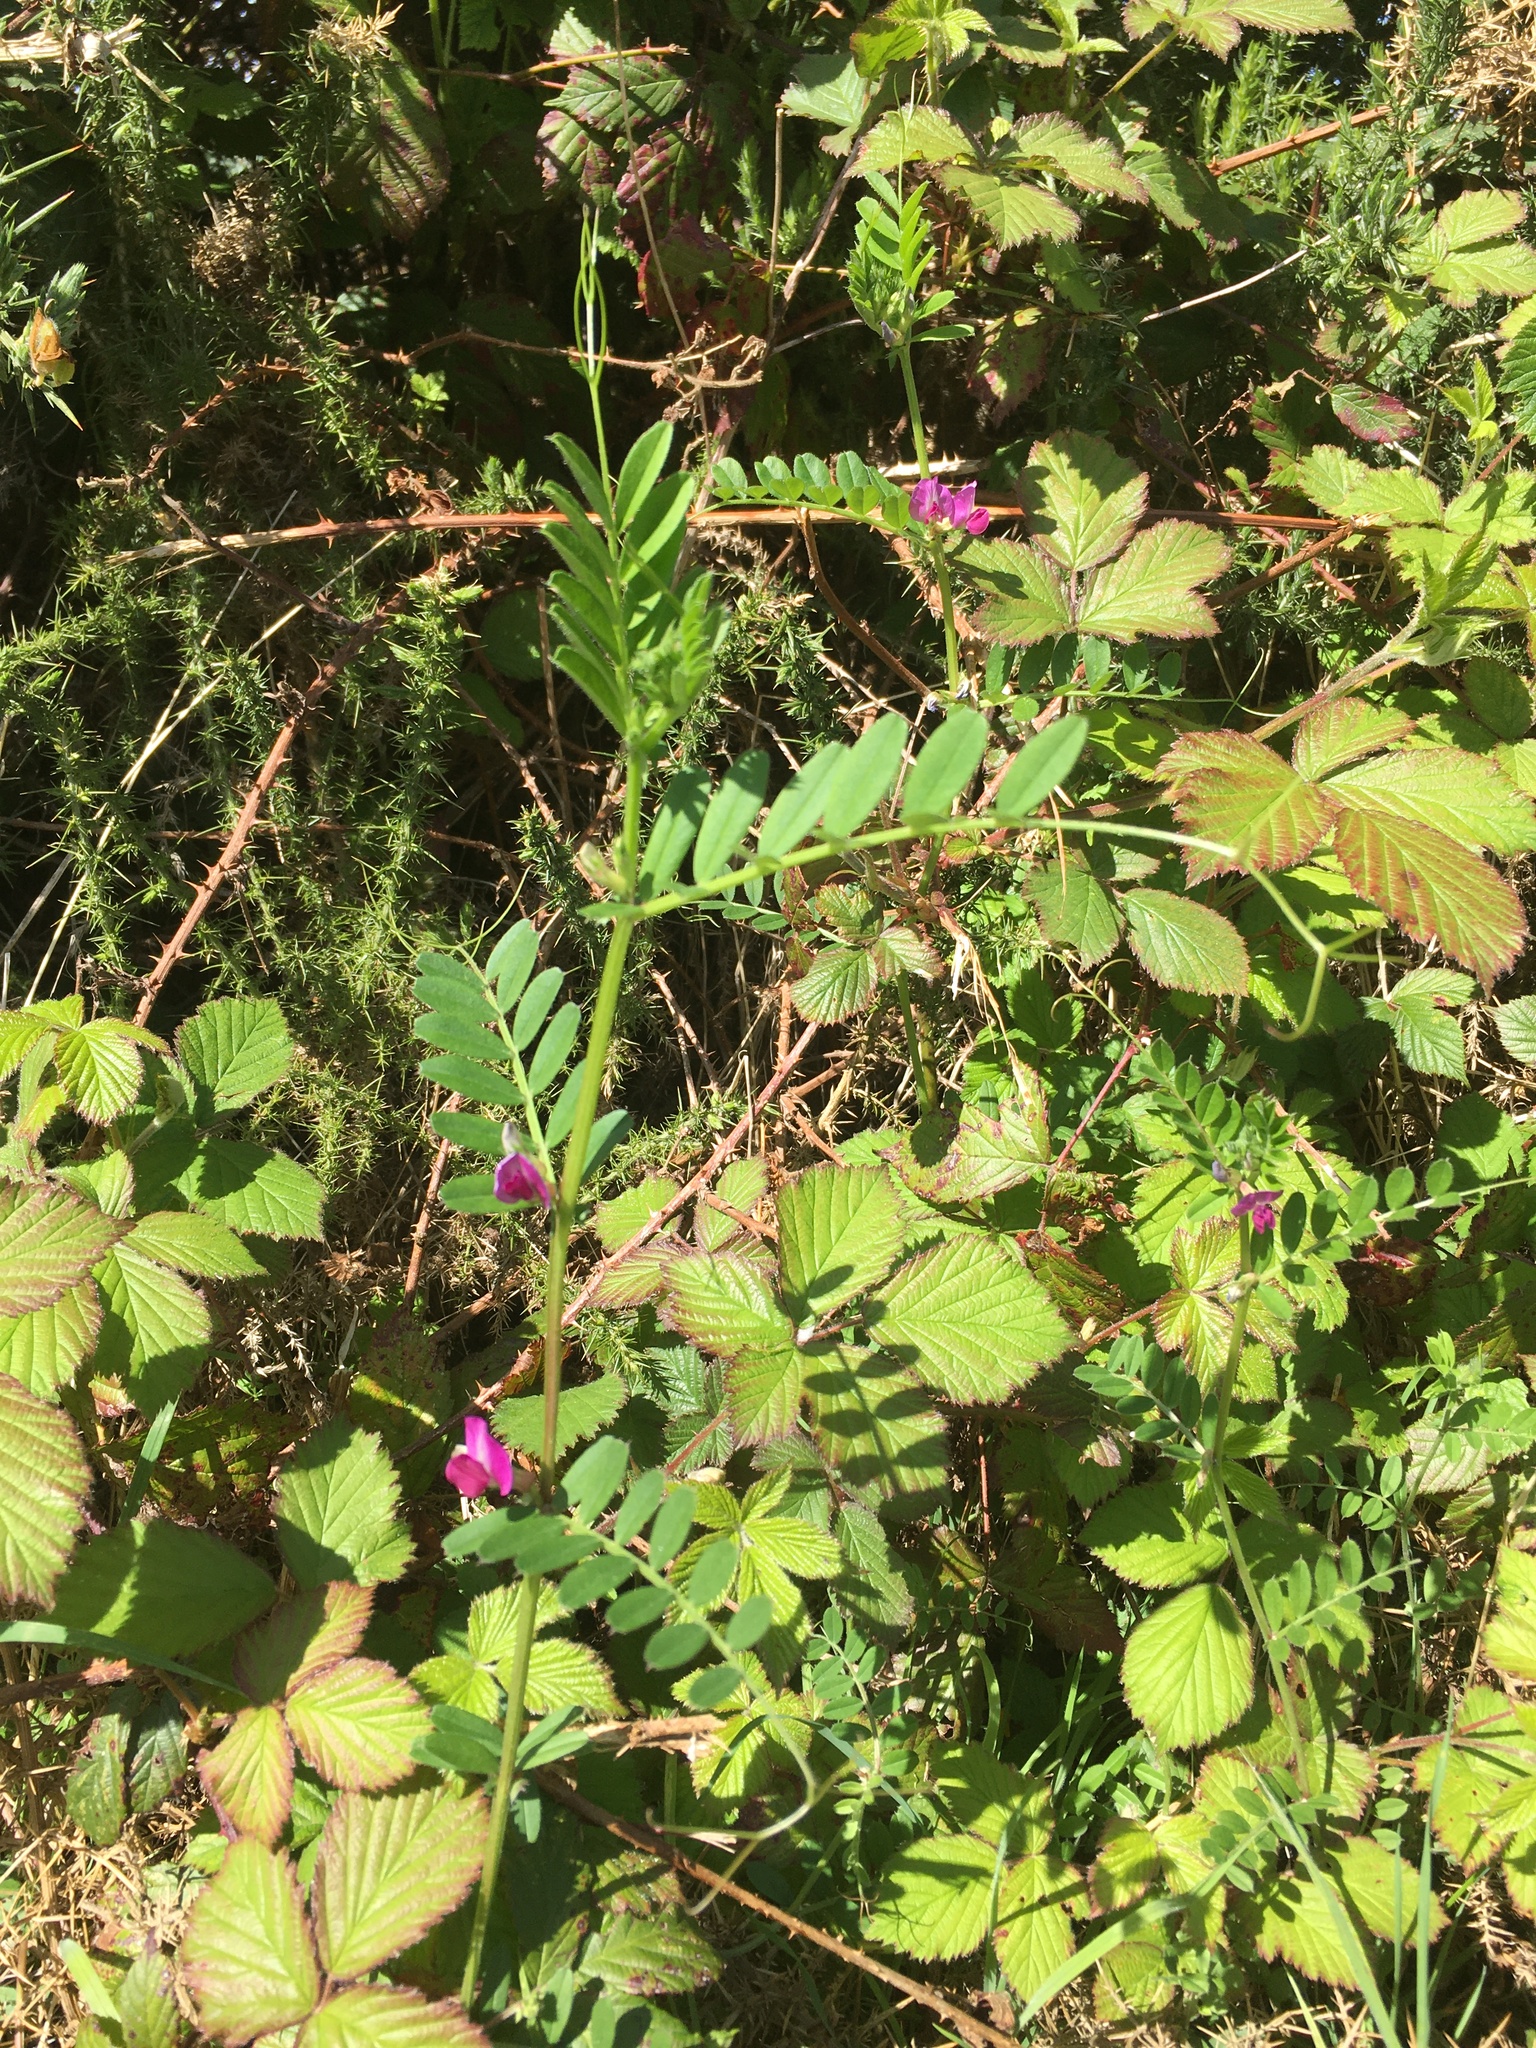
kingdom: Plantae
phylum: Tracheophyta
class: Magnoliopsida
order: Fabales
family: Fabaceae
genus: Vicia
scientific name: Vicia sativa
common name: Garden vetch
